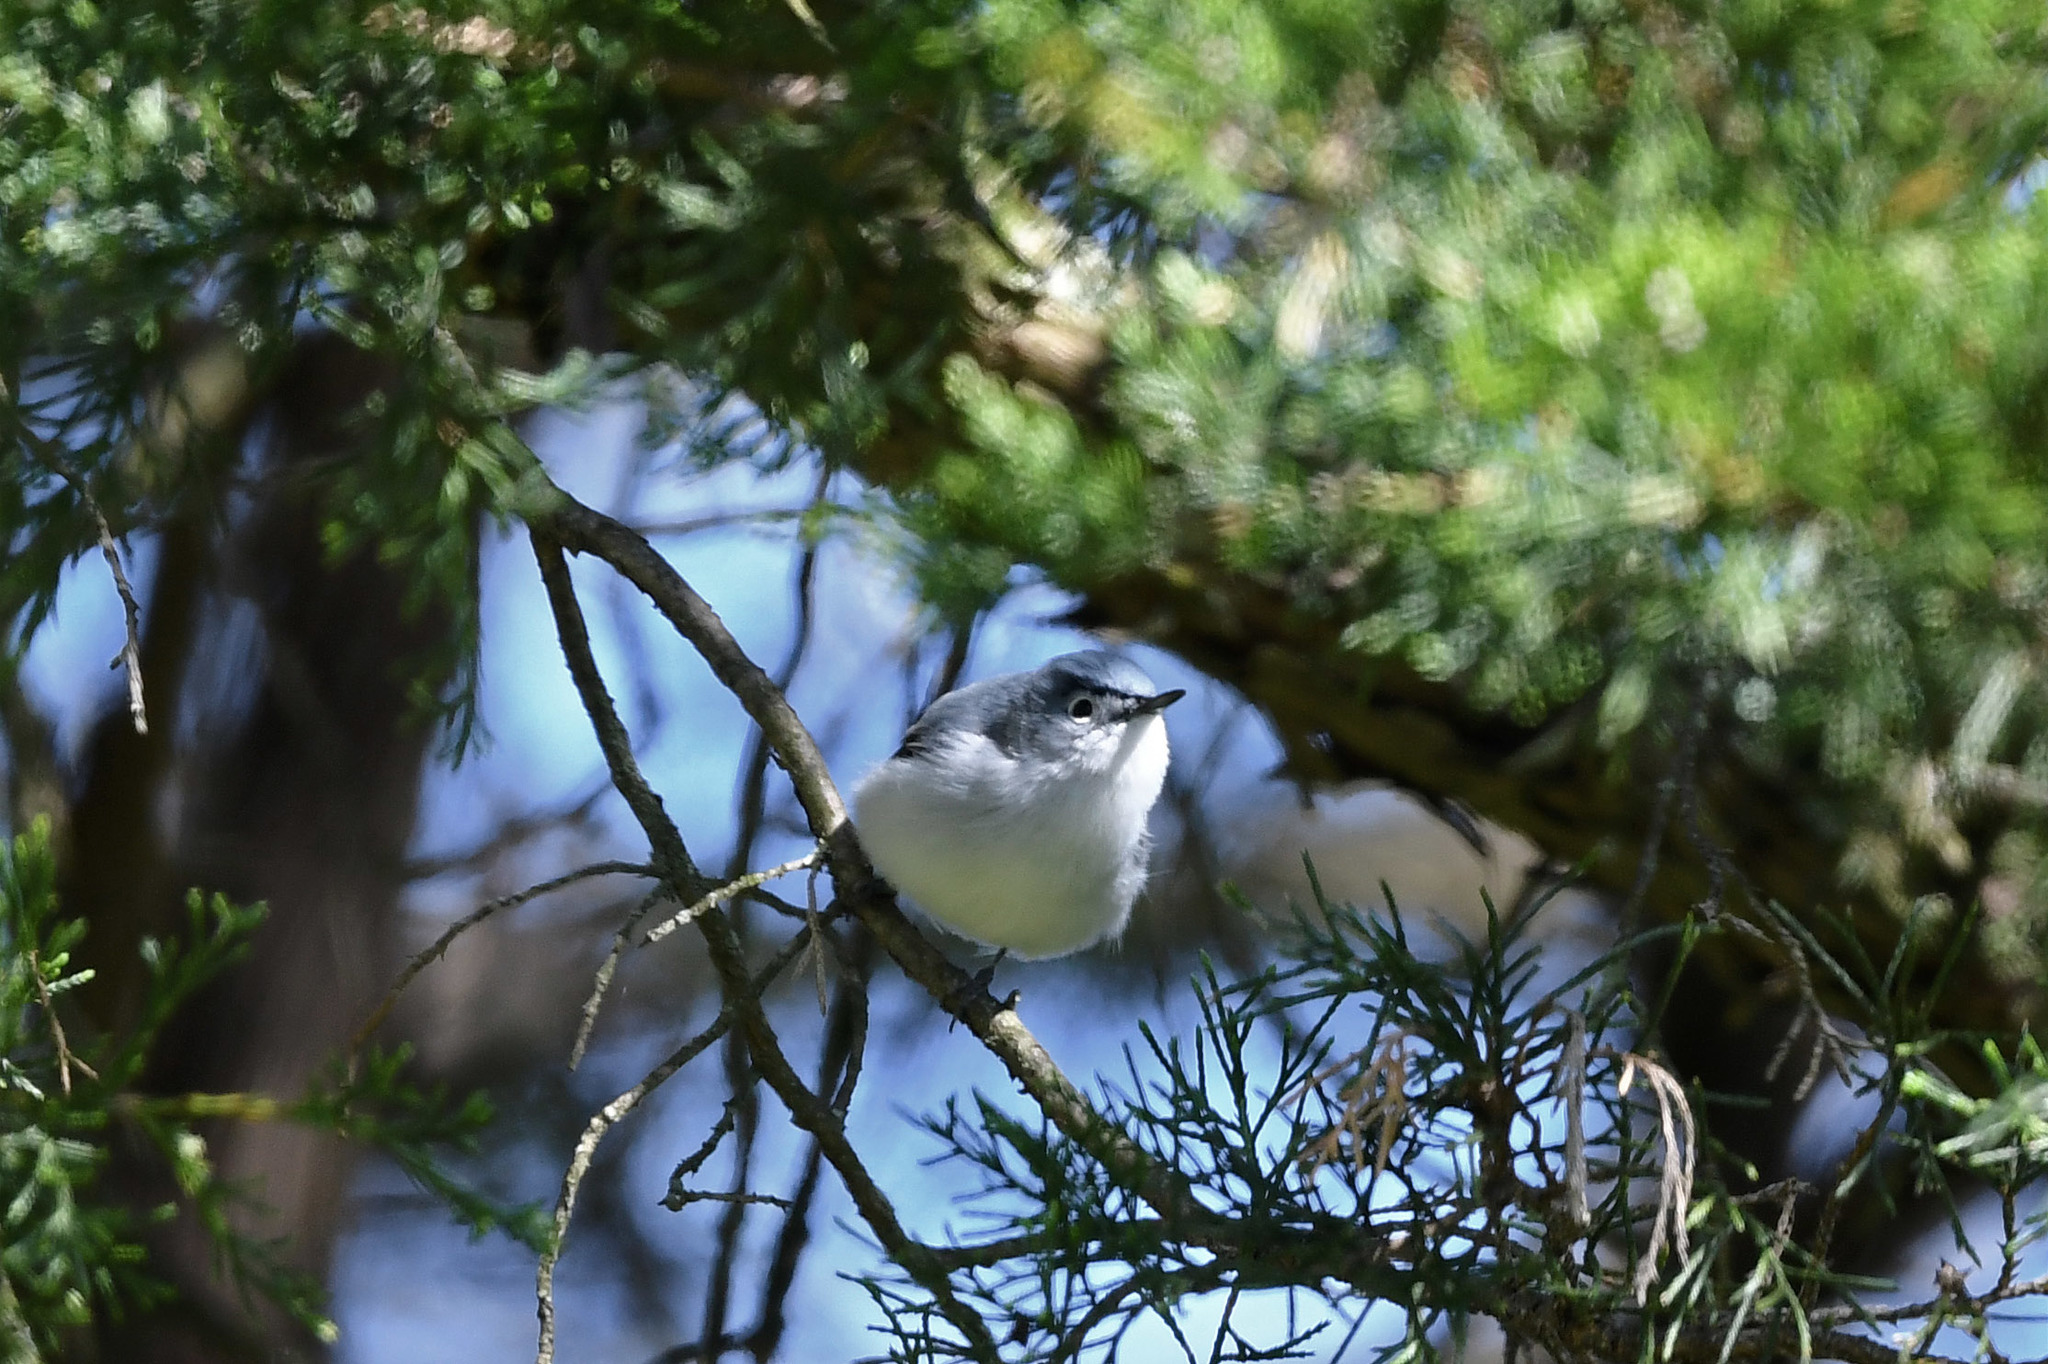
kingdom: Animalia
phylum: Chordata
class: Aves
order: Passeriformes
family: Polioptilidae
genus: Polioptila
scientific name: Polioptila caerulea
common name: Blue-gray gnatcatcher
